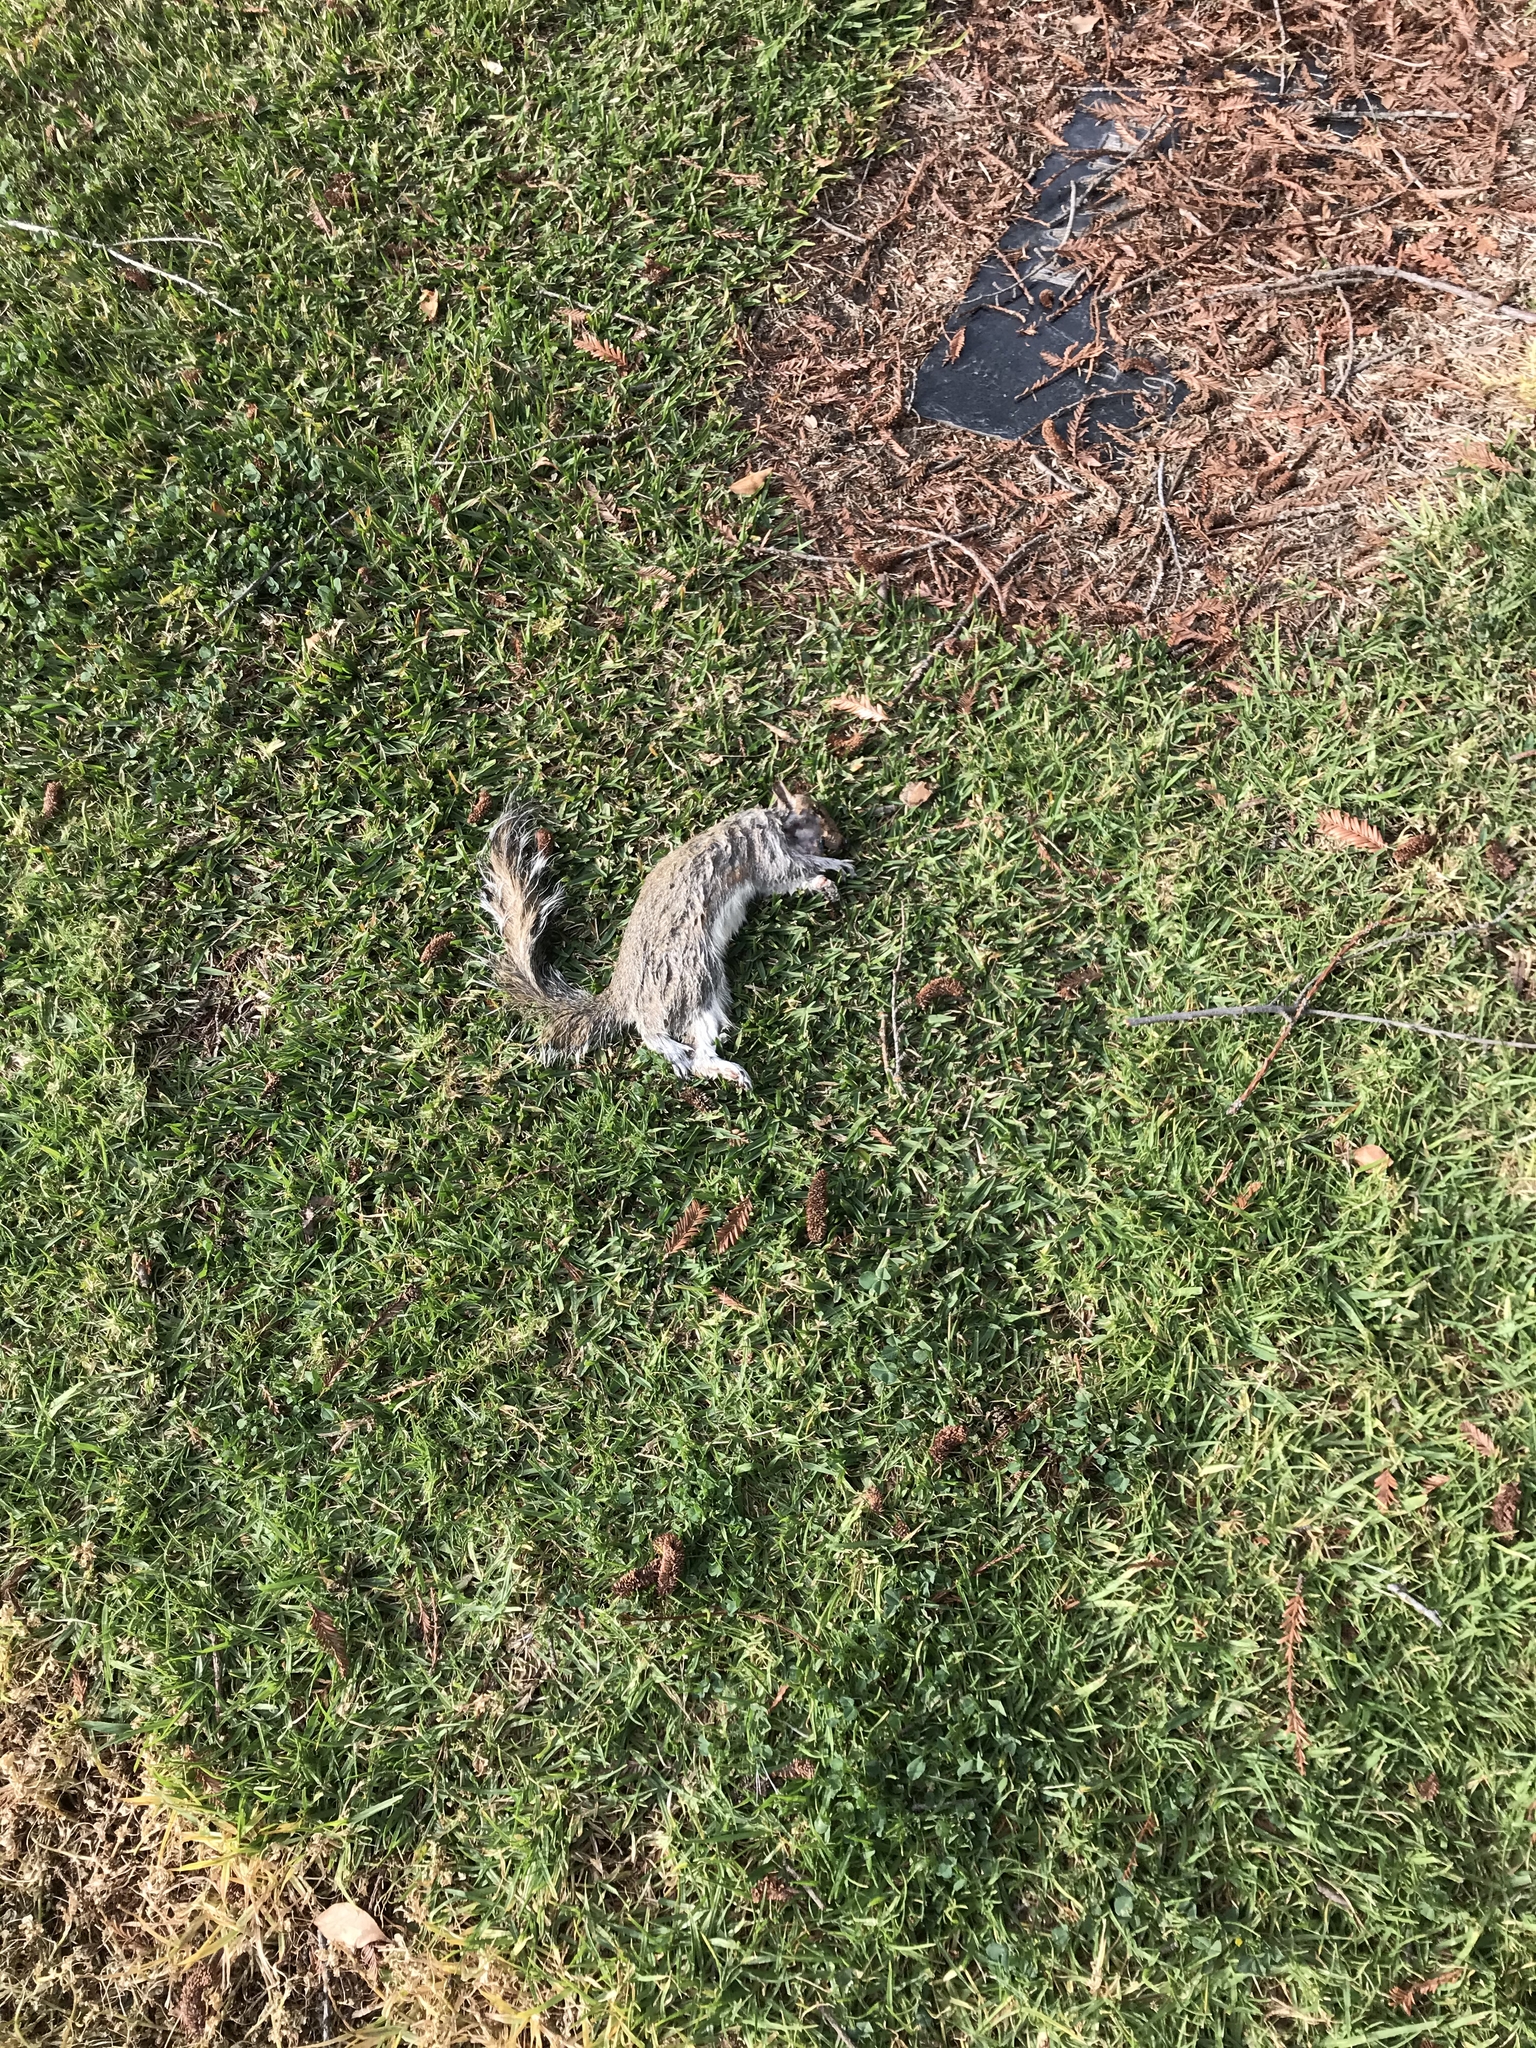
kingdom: Animalia
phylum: Chordata
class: Mammalia
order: Rodentia
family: Sciuridae
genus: Sciurus
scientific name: Sciurus carolinensis
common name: Eastern gray squirrel
